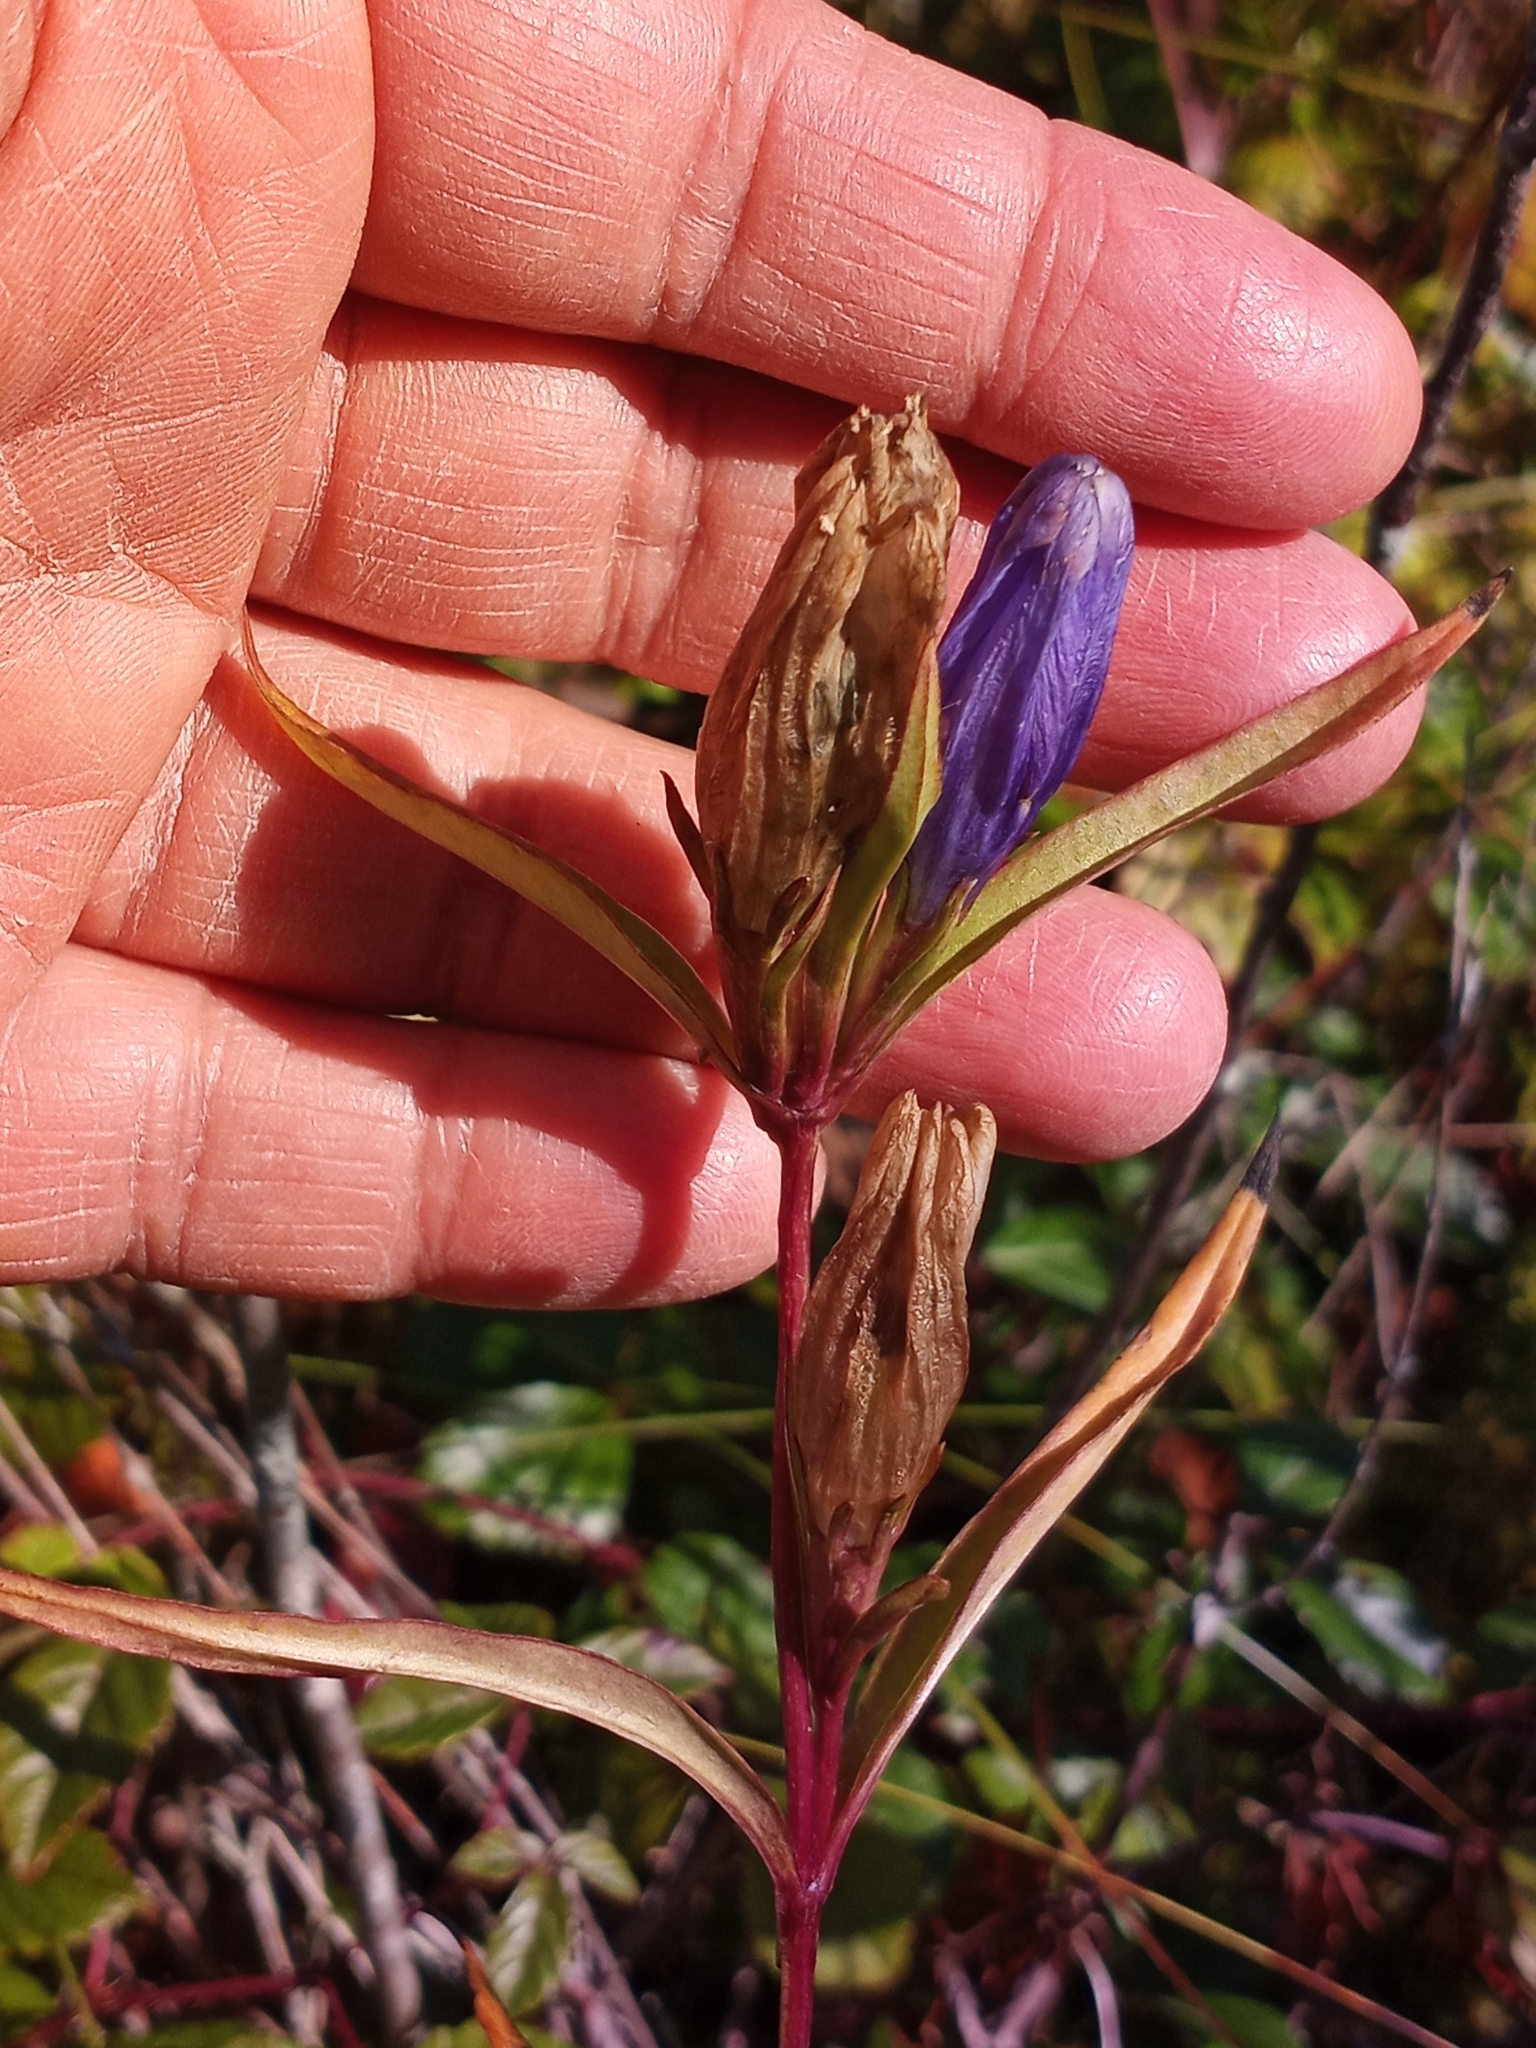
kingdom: Plantae
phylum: Tracheophyta
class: Magnoliopsida
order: Gentianales
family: Gentianaceae
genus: Gentiana
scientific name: Gentiana linearis
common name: Bastard gentian
